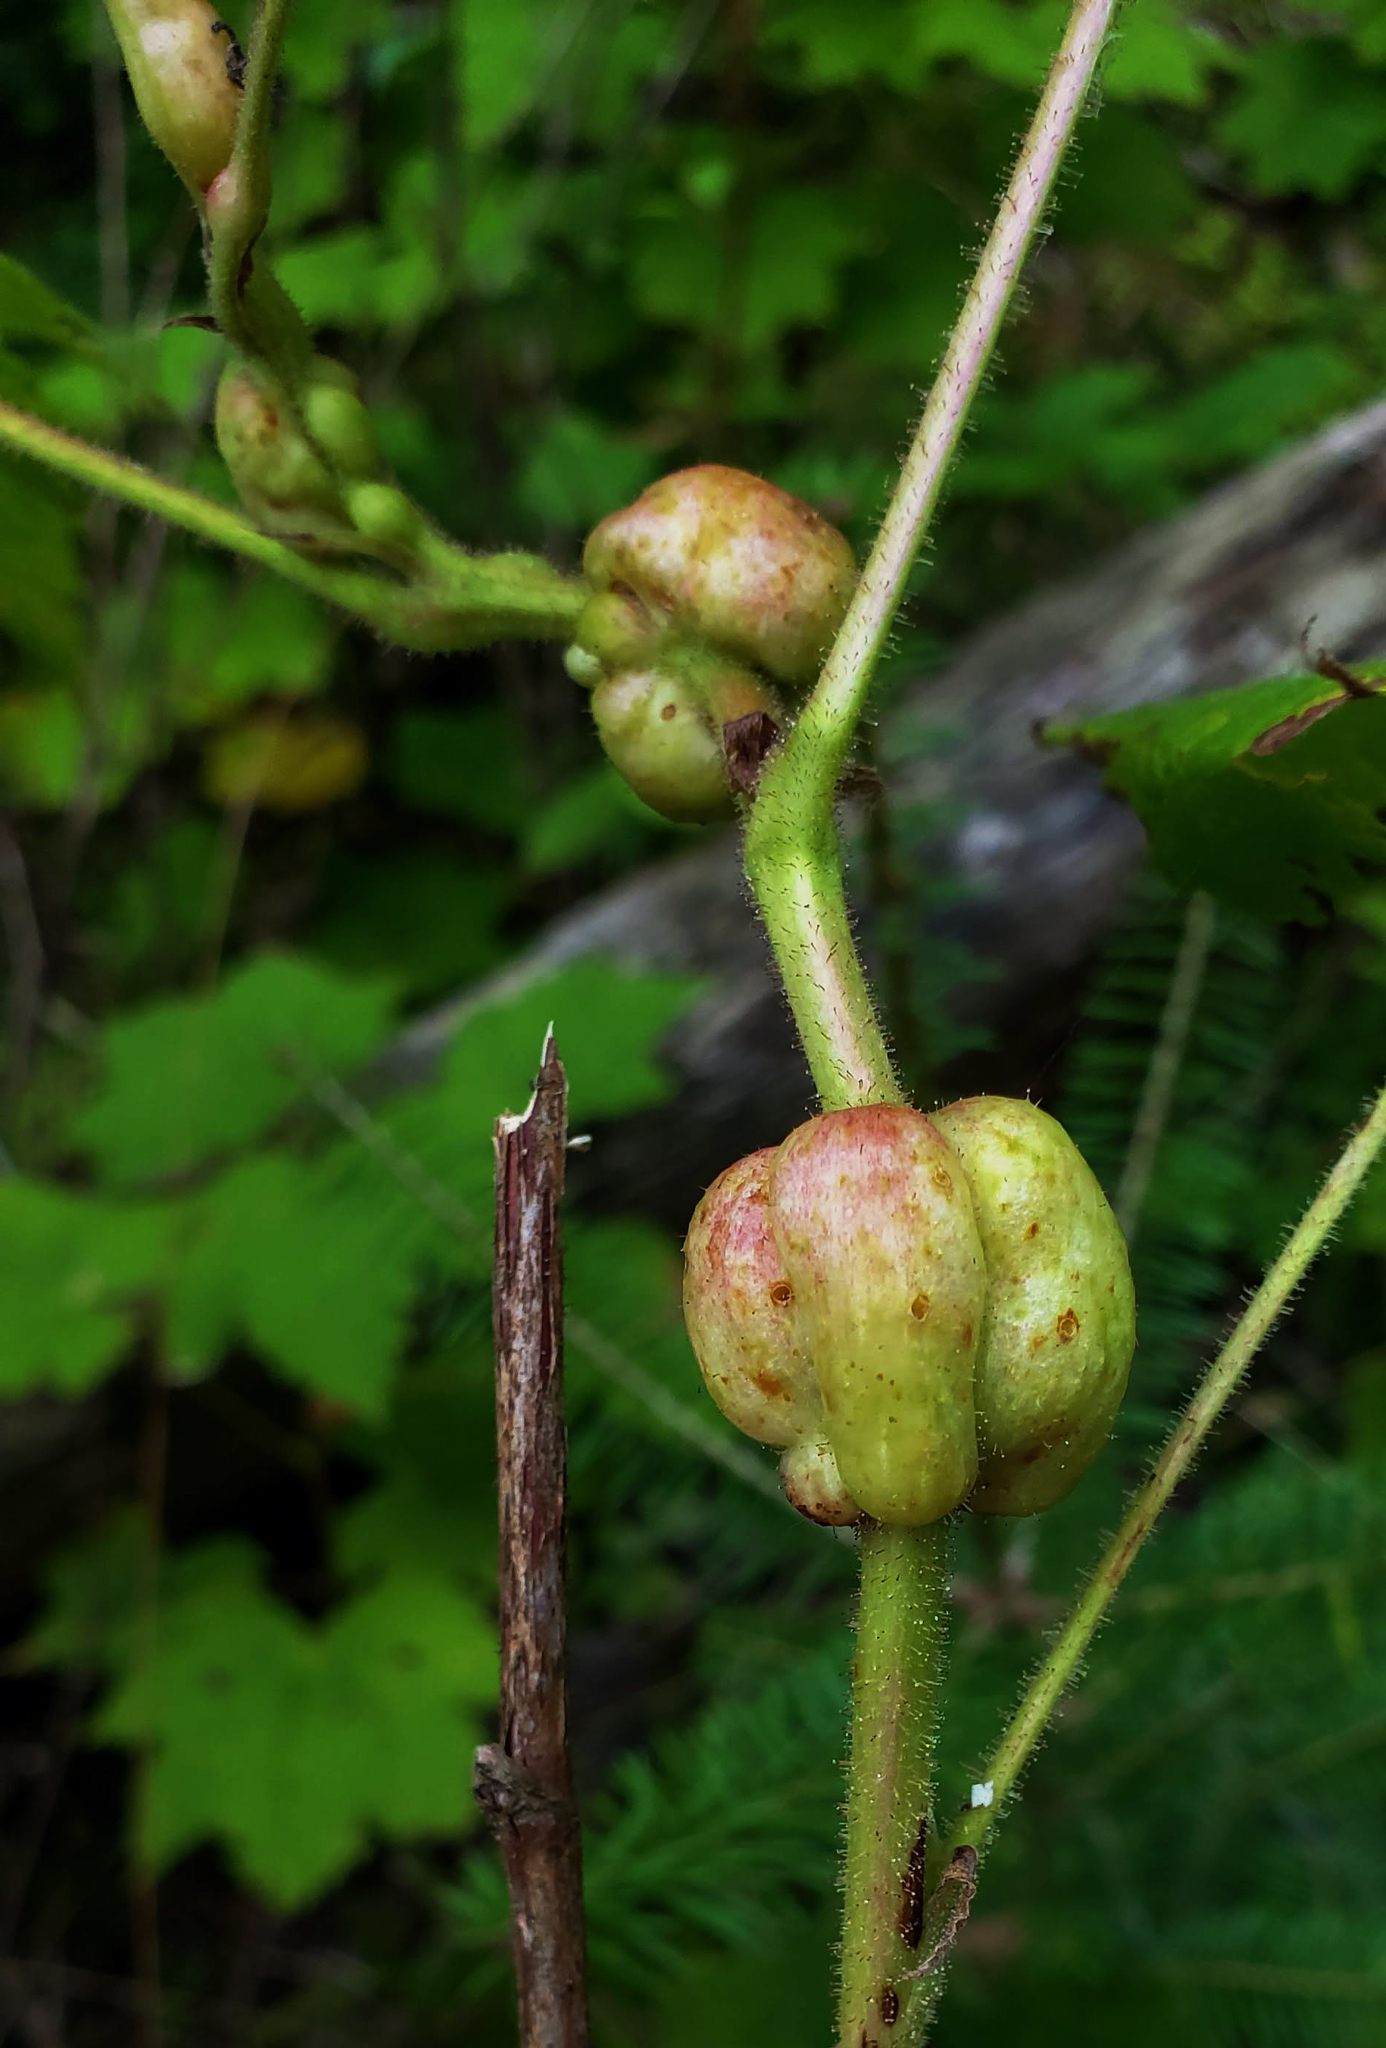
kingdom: Animalia
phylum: Arthropoda
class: Insecta
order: Hymenoptera
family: Cynipidae
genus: Diastrophus
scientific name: Diastrophus
